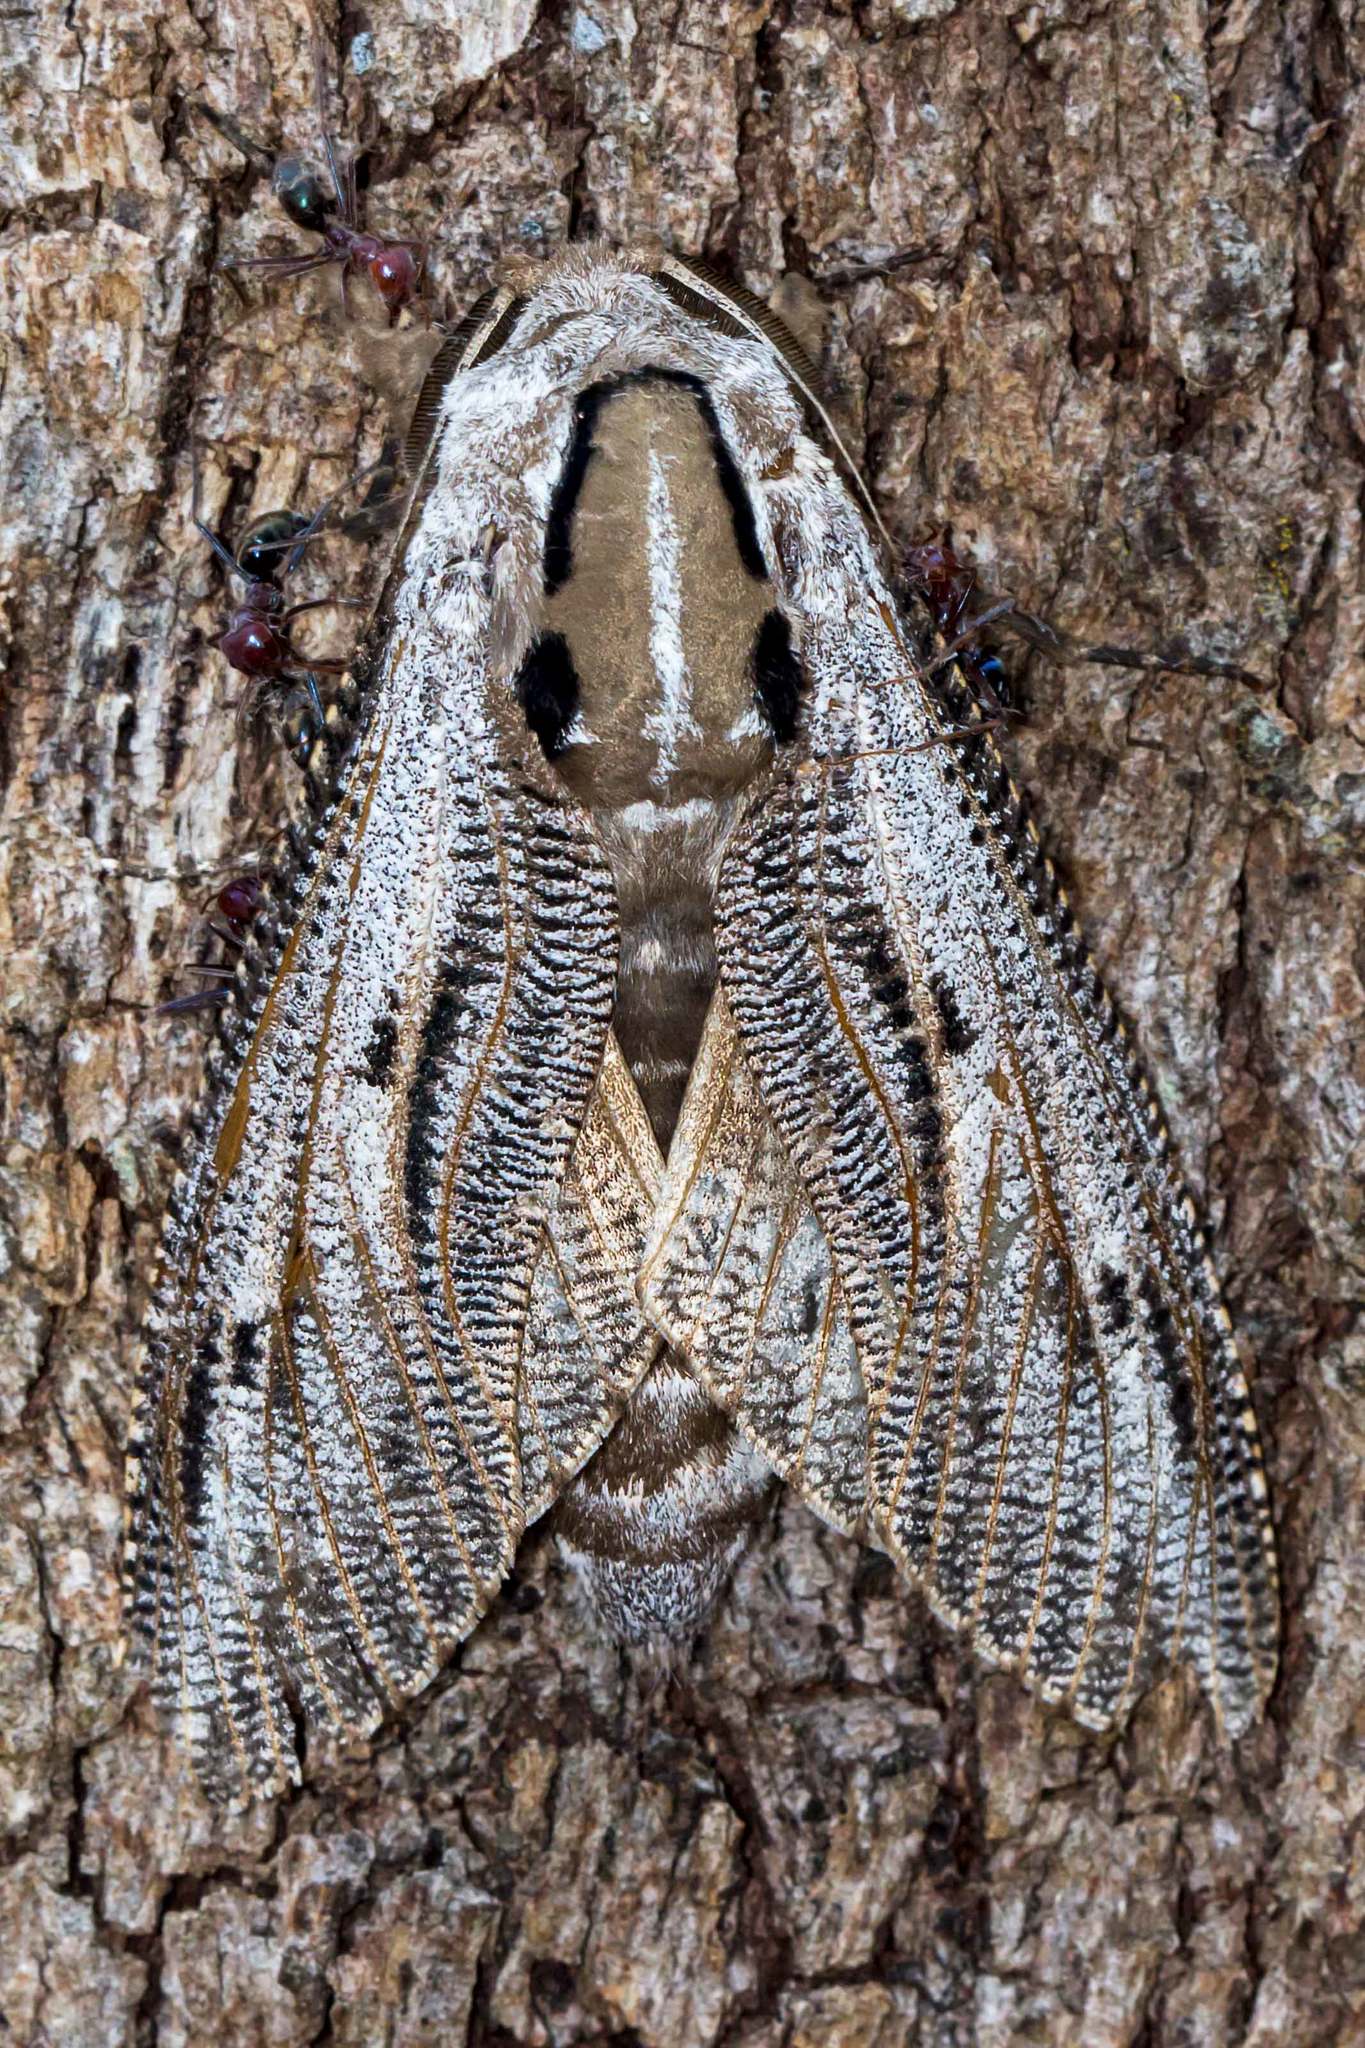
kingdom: Animalia
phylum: Arthropoda
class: Insecta
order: Lepidoptera
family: Cossidae
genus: Endoxyla
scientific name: Endoxyla liturata
